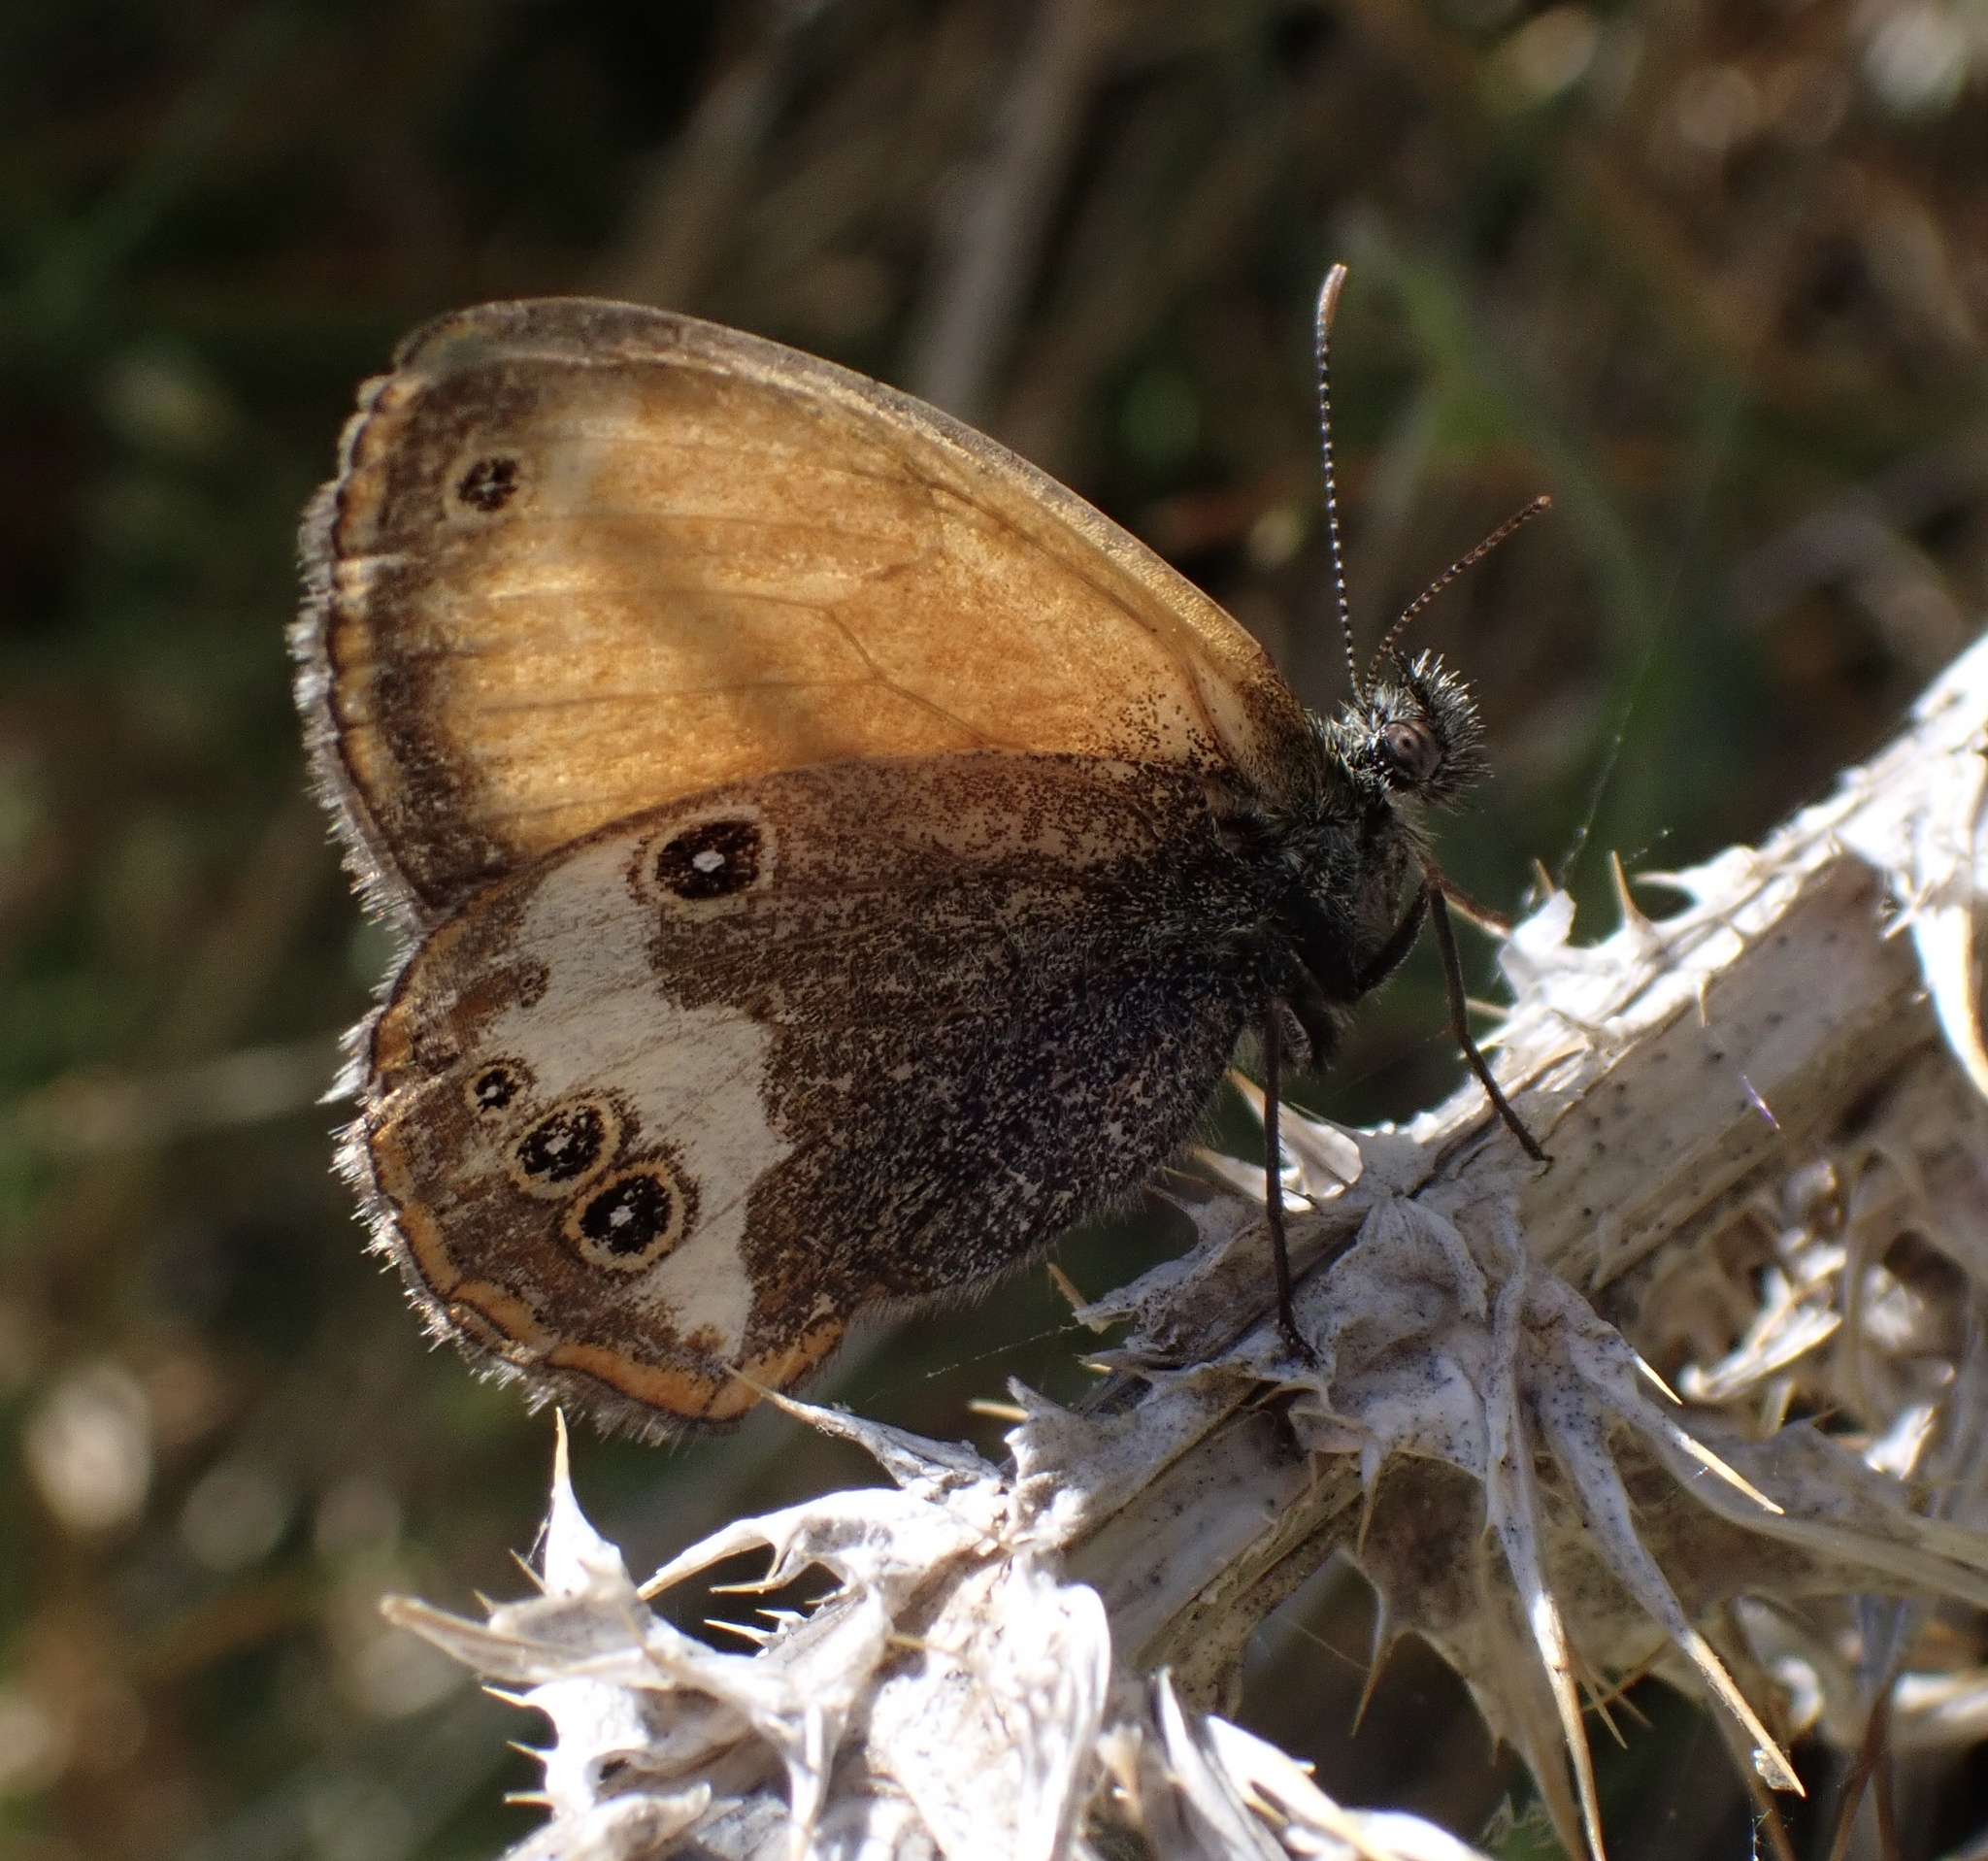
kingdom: Animalia
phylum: Arthropoda
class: Insecta
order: Lepidoptera
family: Nymphalidae
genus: Coenonympha
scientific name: Coenonympha arcania
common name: Pearly heath
